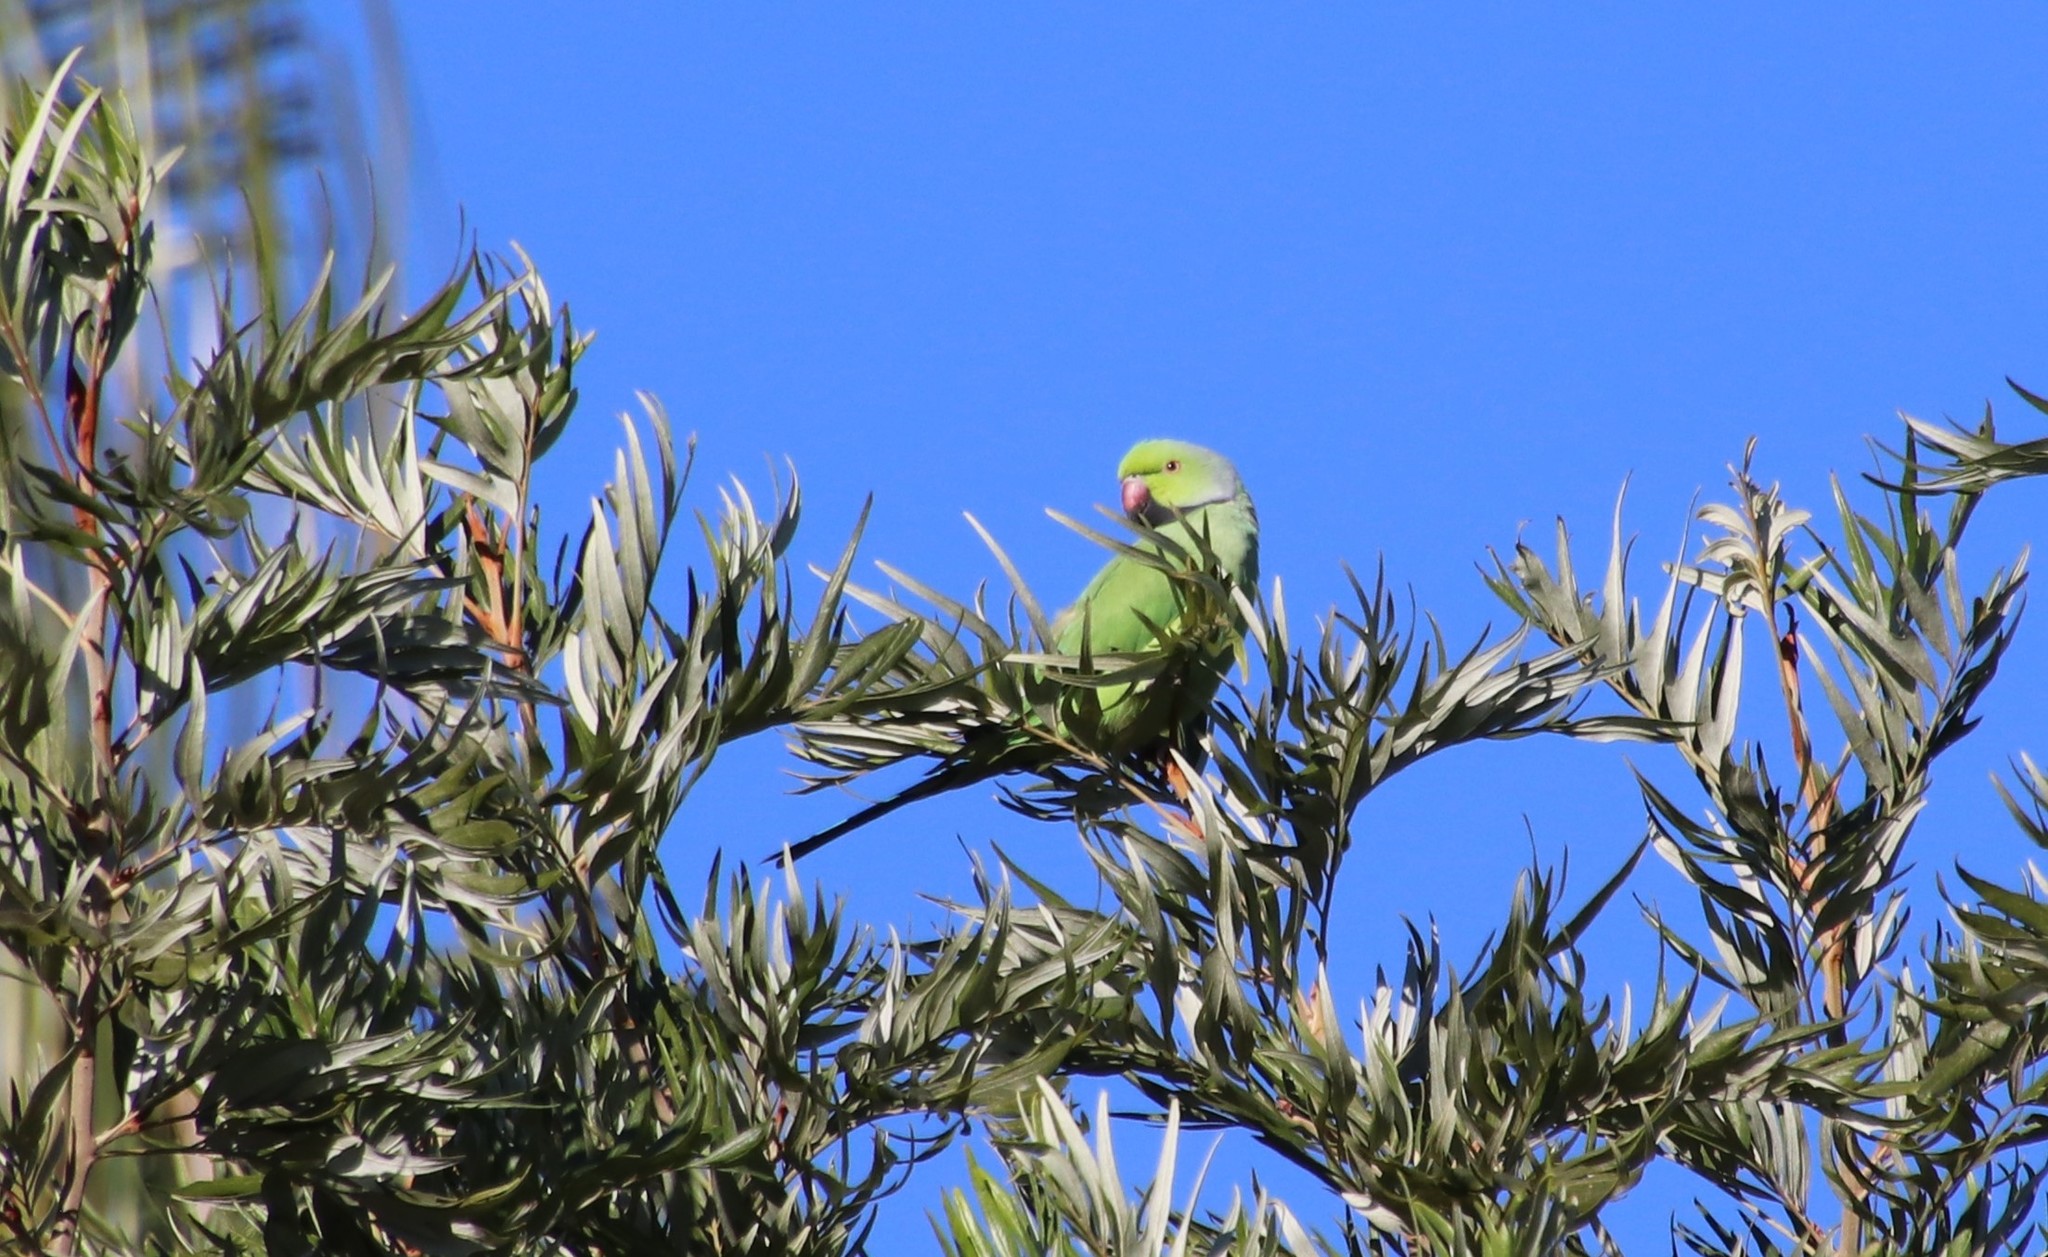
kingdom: Animalia
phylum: Chordata
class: Aves
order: Psittaciformes
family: Psittacidae
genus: Psittacula
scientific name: Psittacula krameri
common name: Rose-ringed parakeet
